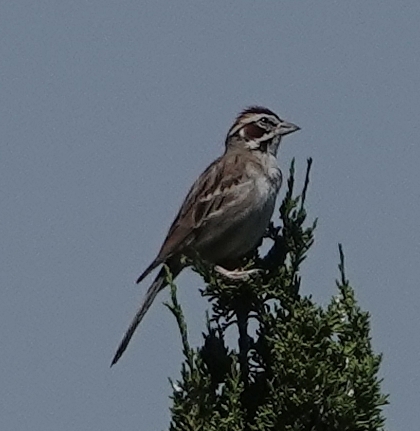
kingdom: Animalia
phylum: Chordata
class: Aves
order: Passeriformes
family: Passerellidae
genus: Chondestes
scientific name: Chondestes grammacus
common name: Lark sparrow
